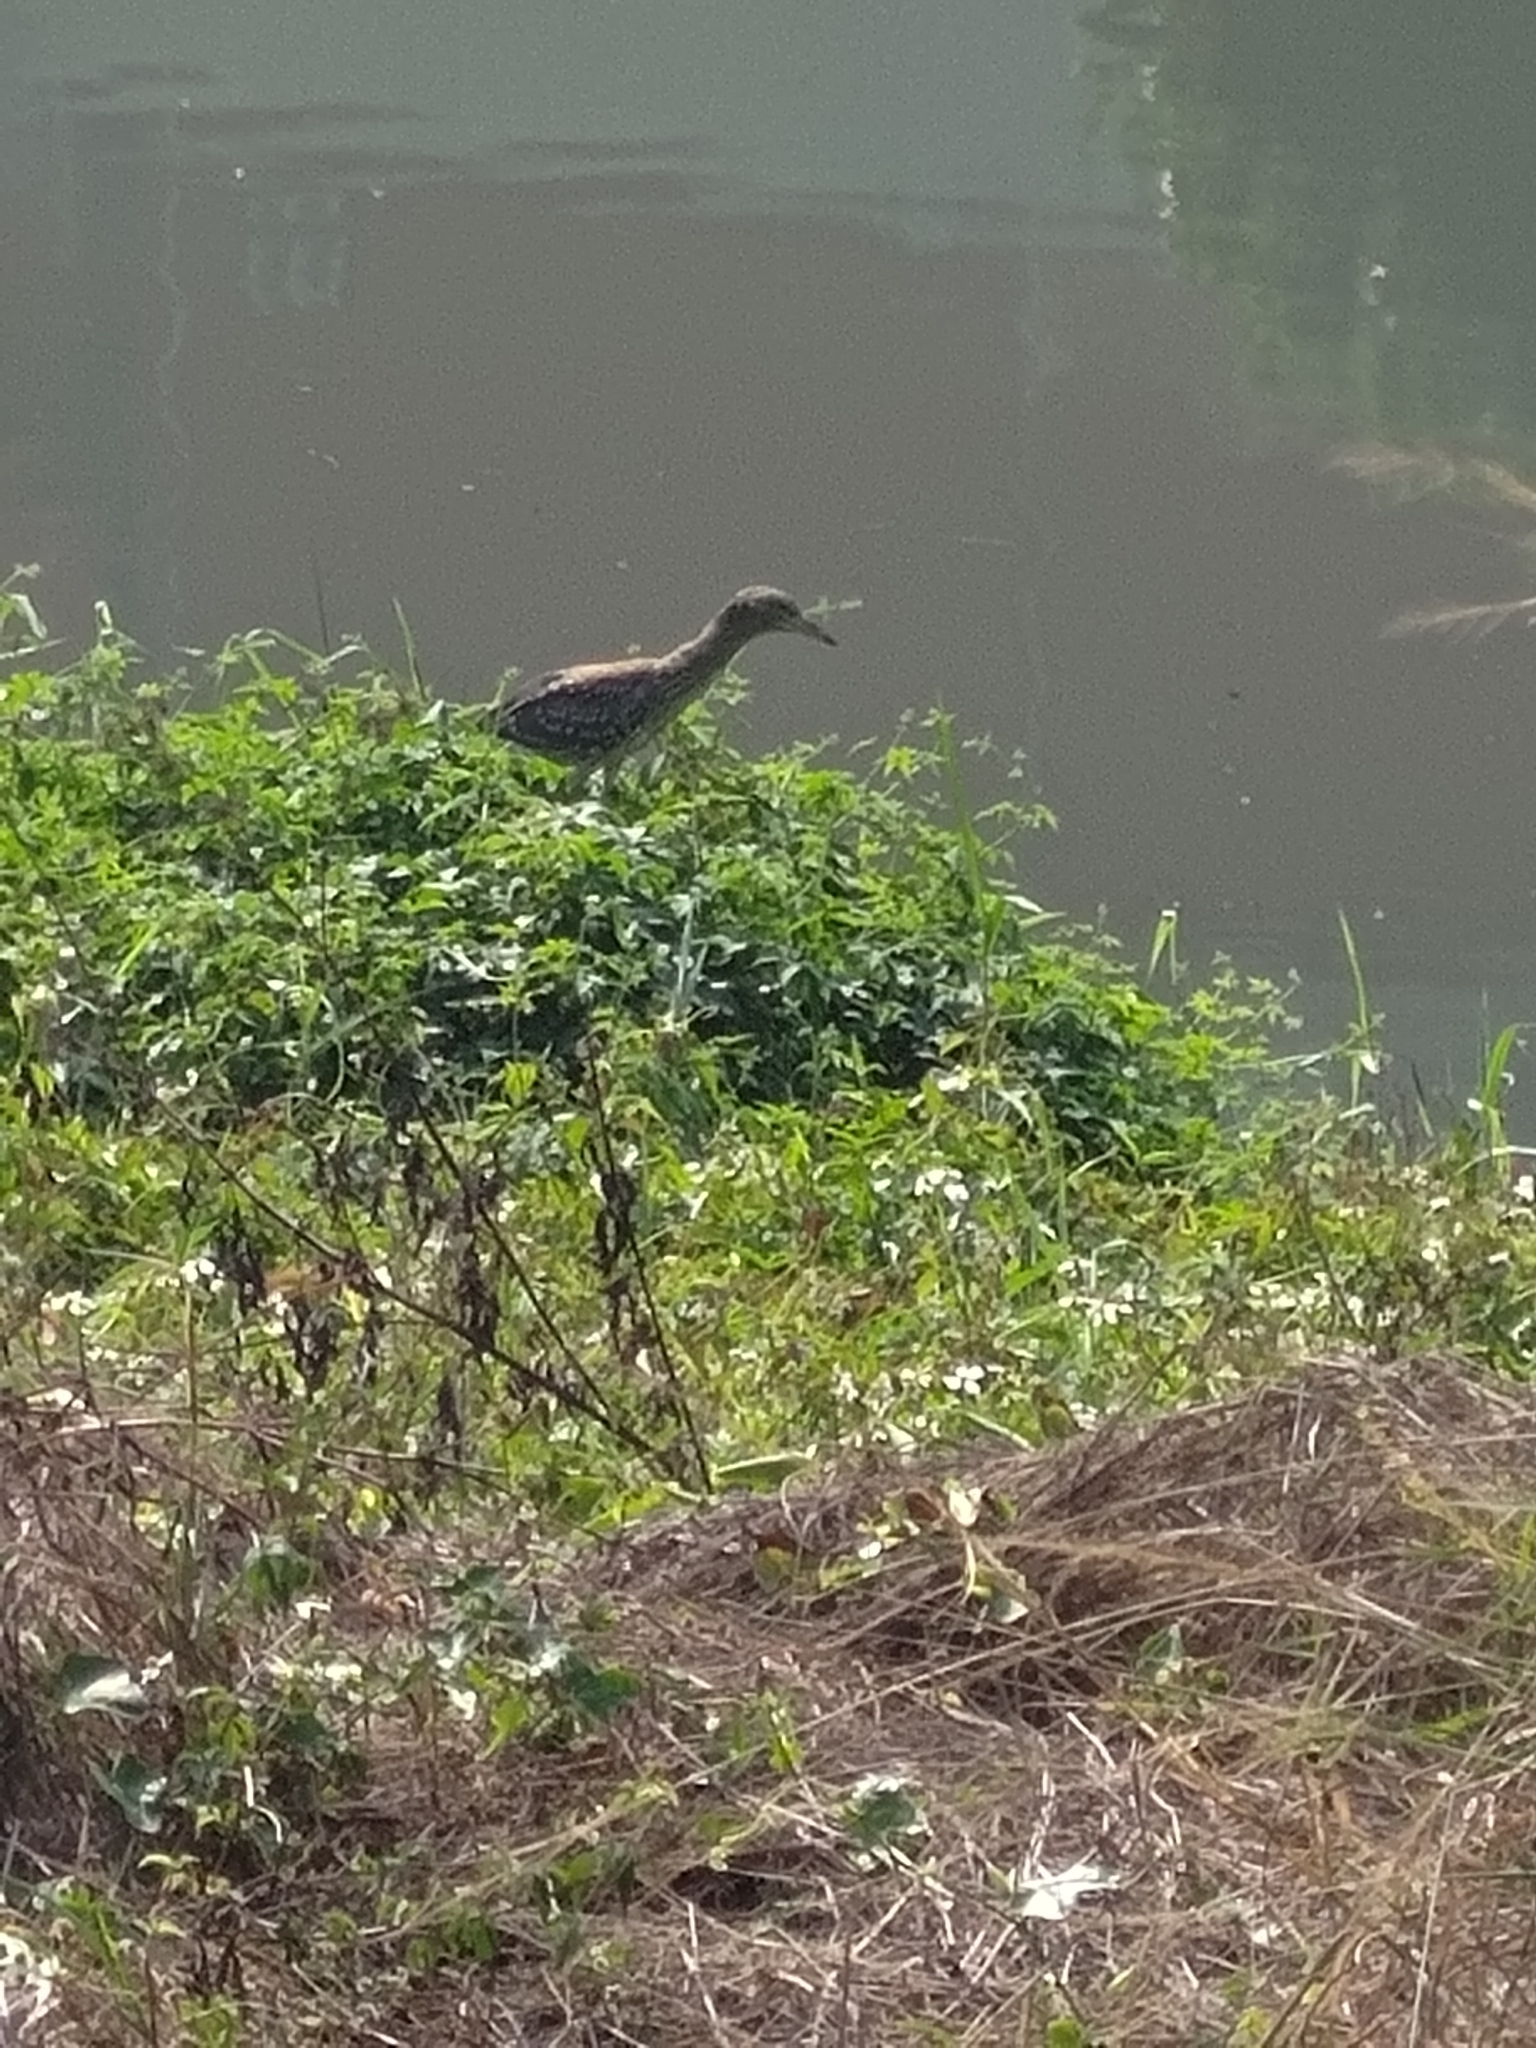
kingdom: Animalia
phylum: Chordata
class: Aves
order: Pelecaniformes
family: Ardeidae
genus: Nycticorax
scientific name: Nycticorax nycticorax
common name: Black-crowned night heron
